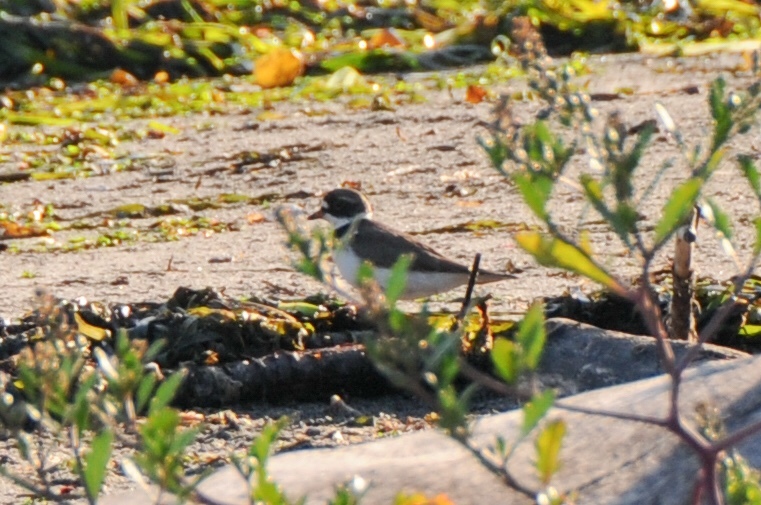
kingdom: Animalia
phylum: Chordata
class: Aves
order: Charadriiformes
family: Charadriidae
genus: Charadrius
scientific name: Charadrius semipalmatus
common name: Semipalmated plover
